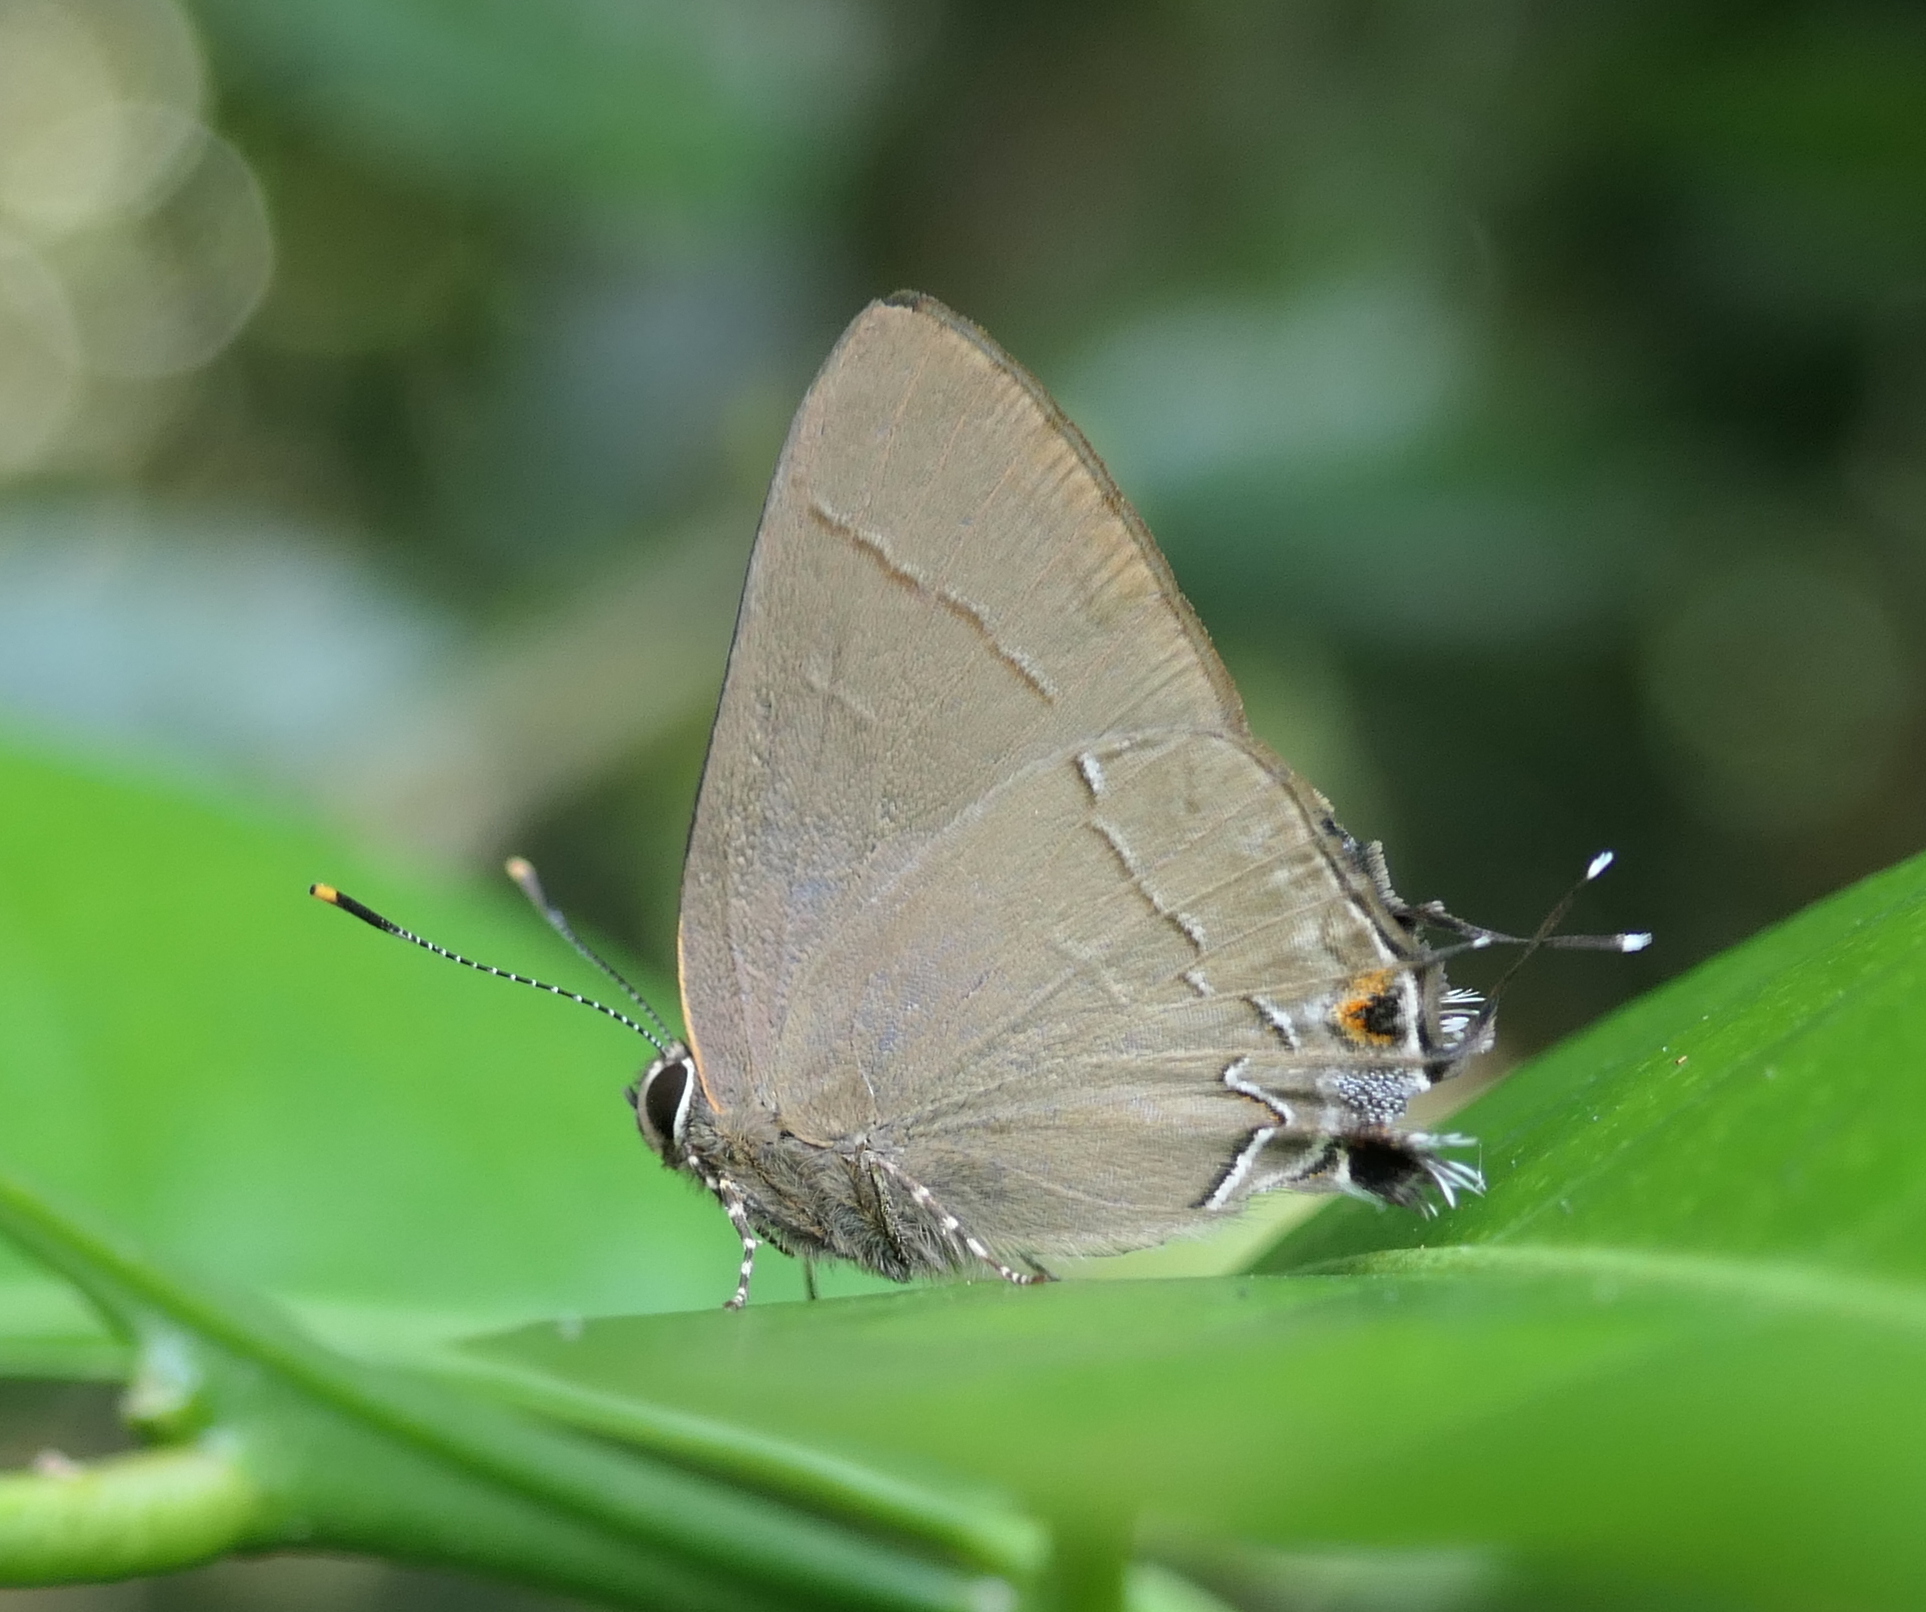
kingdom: Animalia
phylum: Arthropoda
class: Insecta
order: Lepidoptera
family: Lycaenidae
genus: Ziegleria
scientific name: Ziegleria hesperitis
